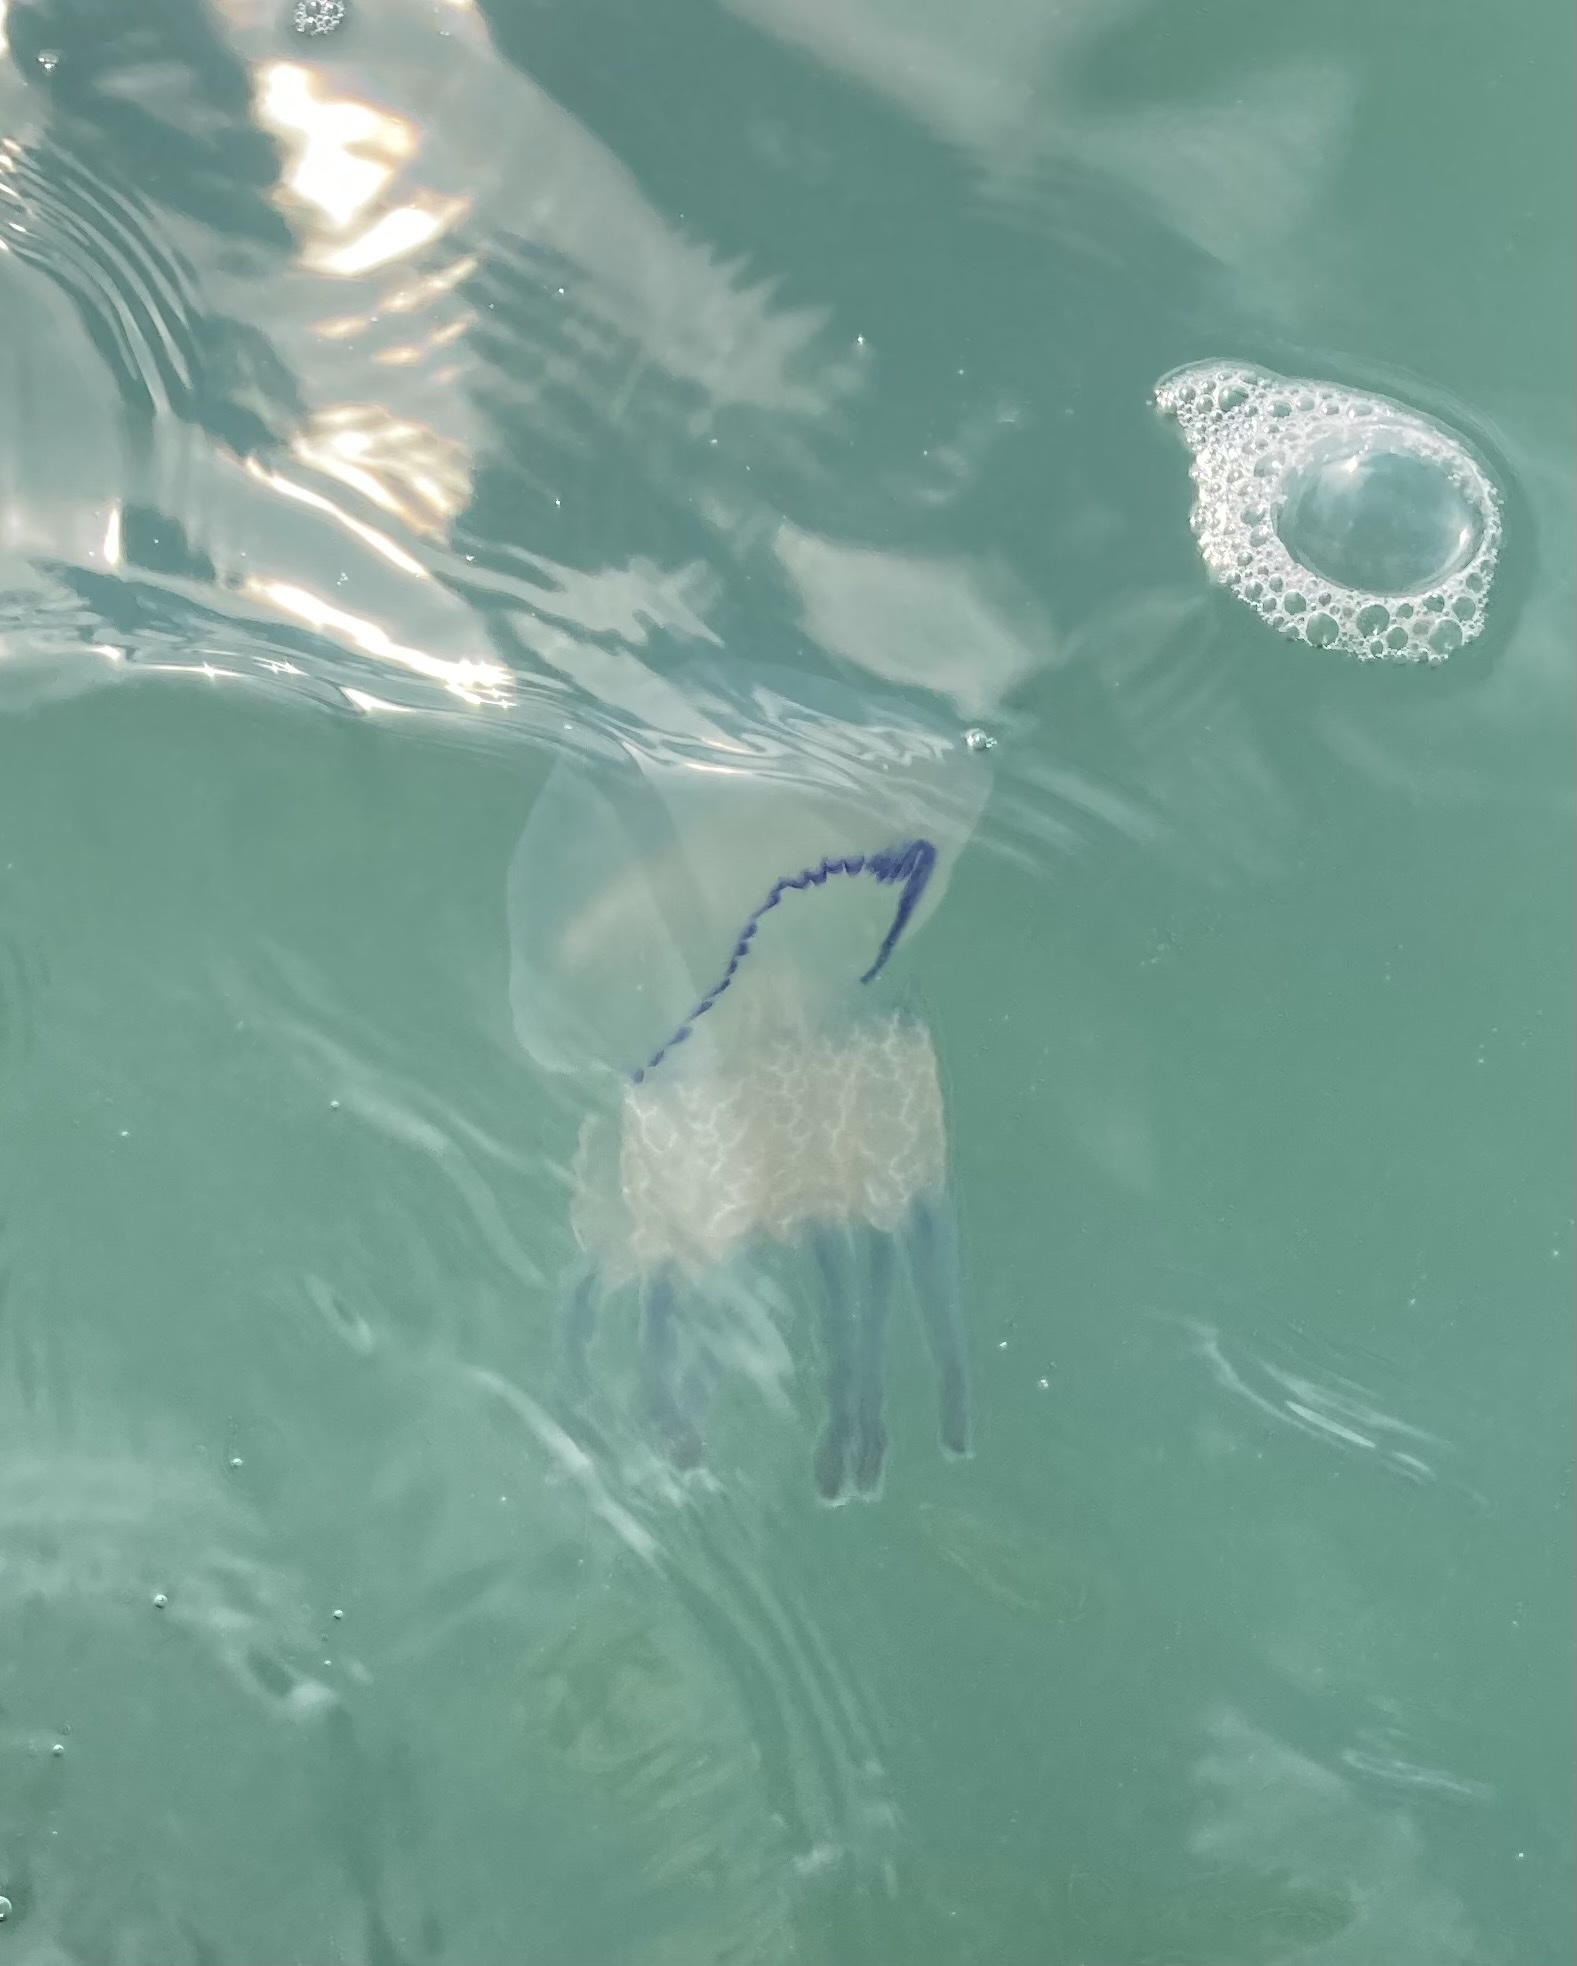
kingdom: Animalia
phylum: Cnidaria
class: Scyphozoa
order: Rhizostomeae
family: Rhizostomatidae
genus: Rhizostoma
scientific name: Rhizostoma pulmo
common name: Barrel jellyfish
